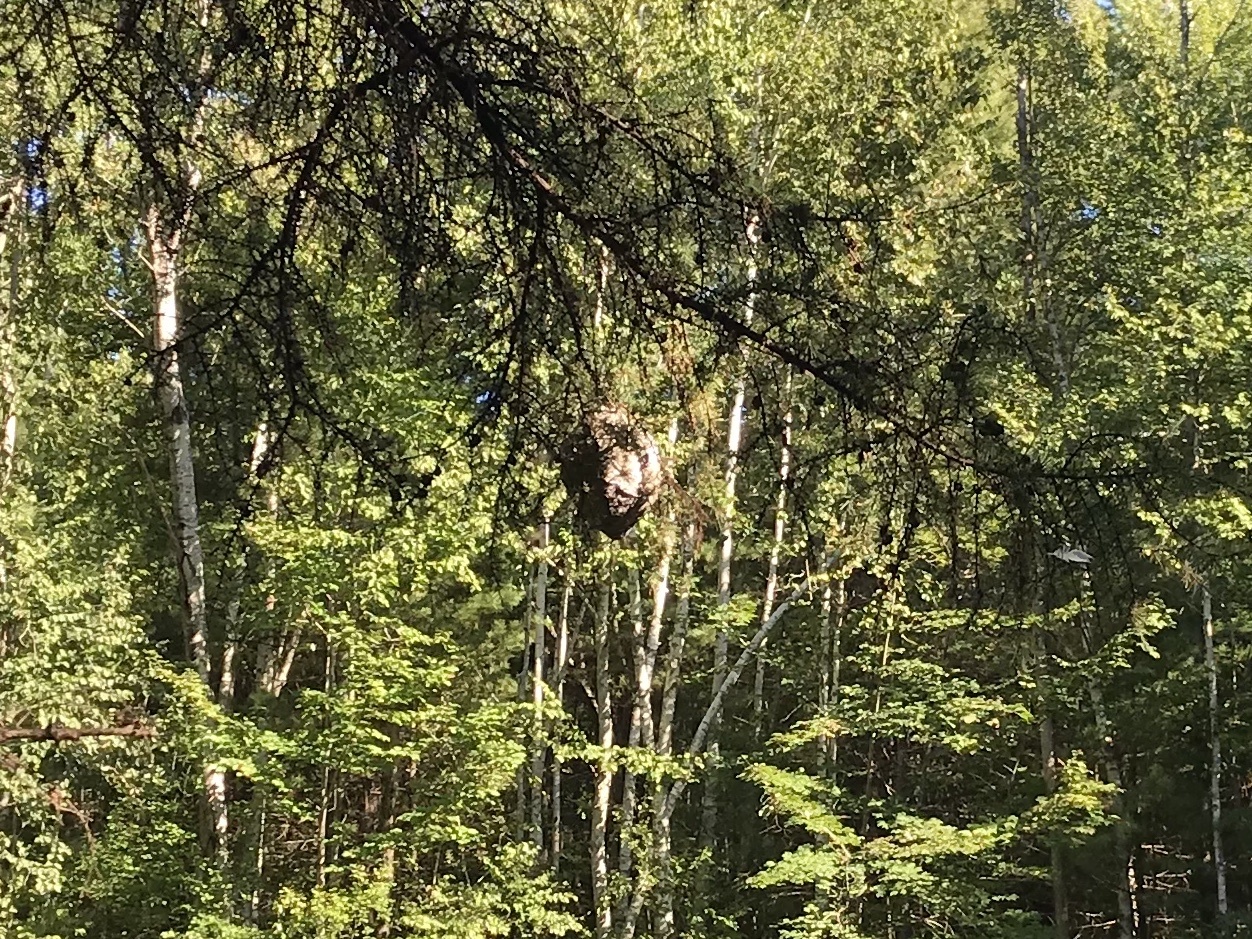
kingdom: Animalia
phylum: Arthropoda
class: Insecta
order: Hymenoptera
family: Vespidae
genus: Dolichovespula
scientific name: Dolichovespula
